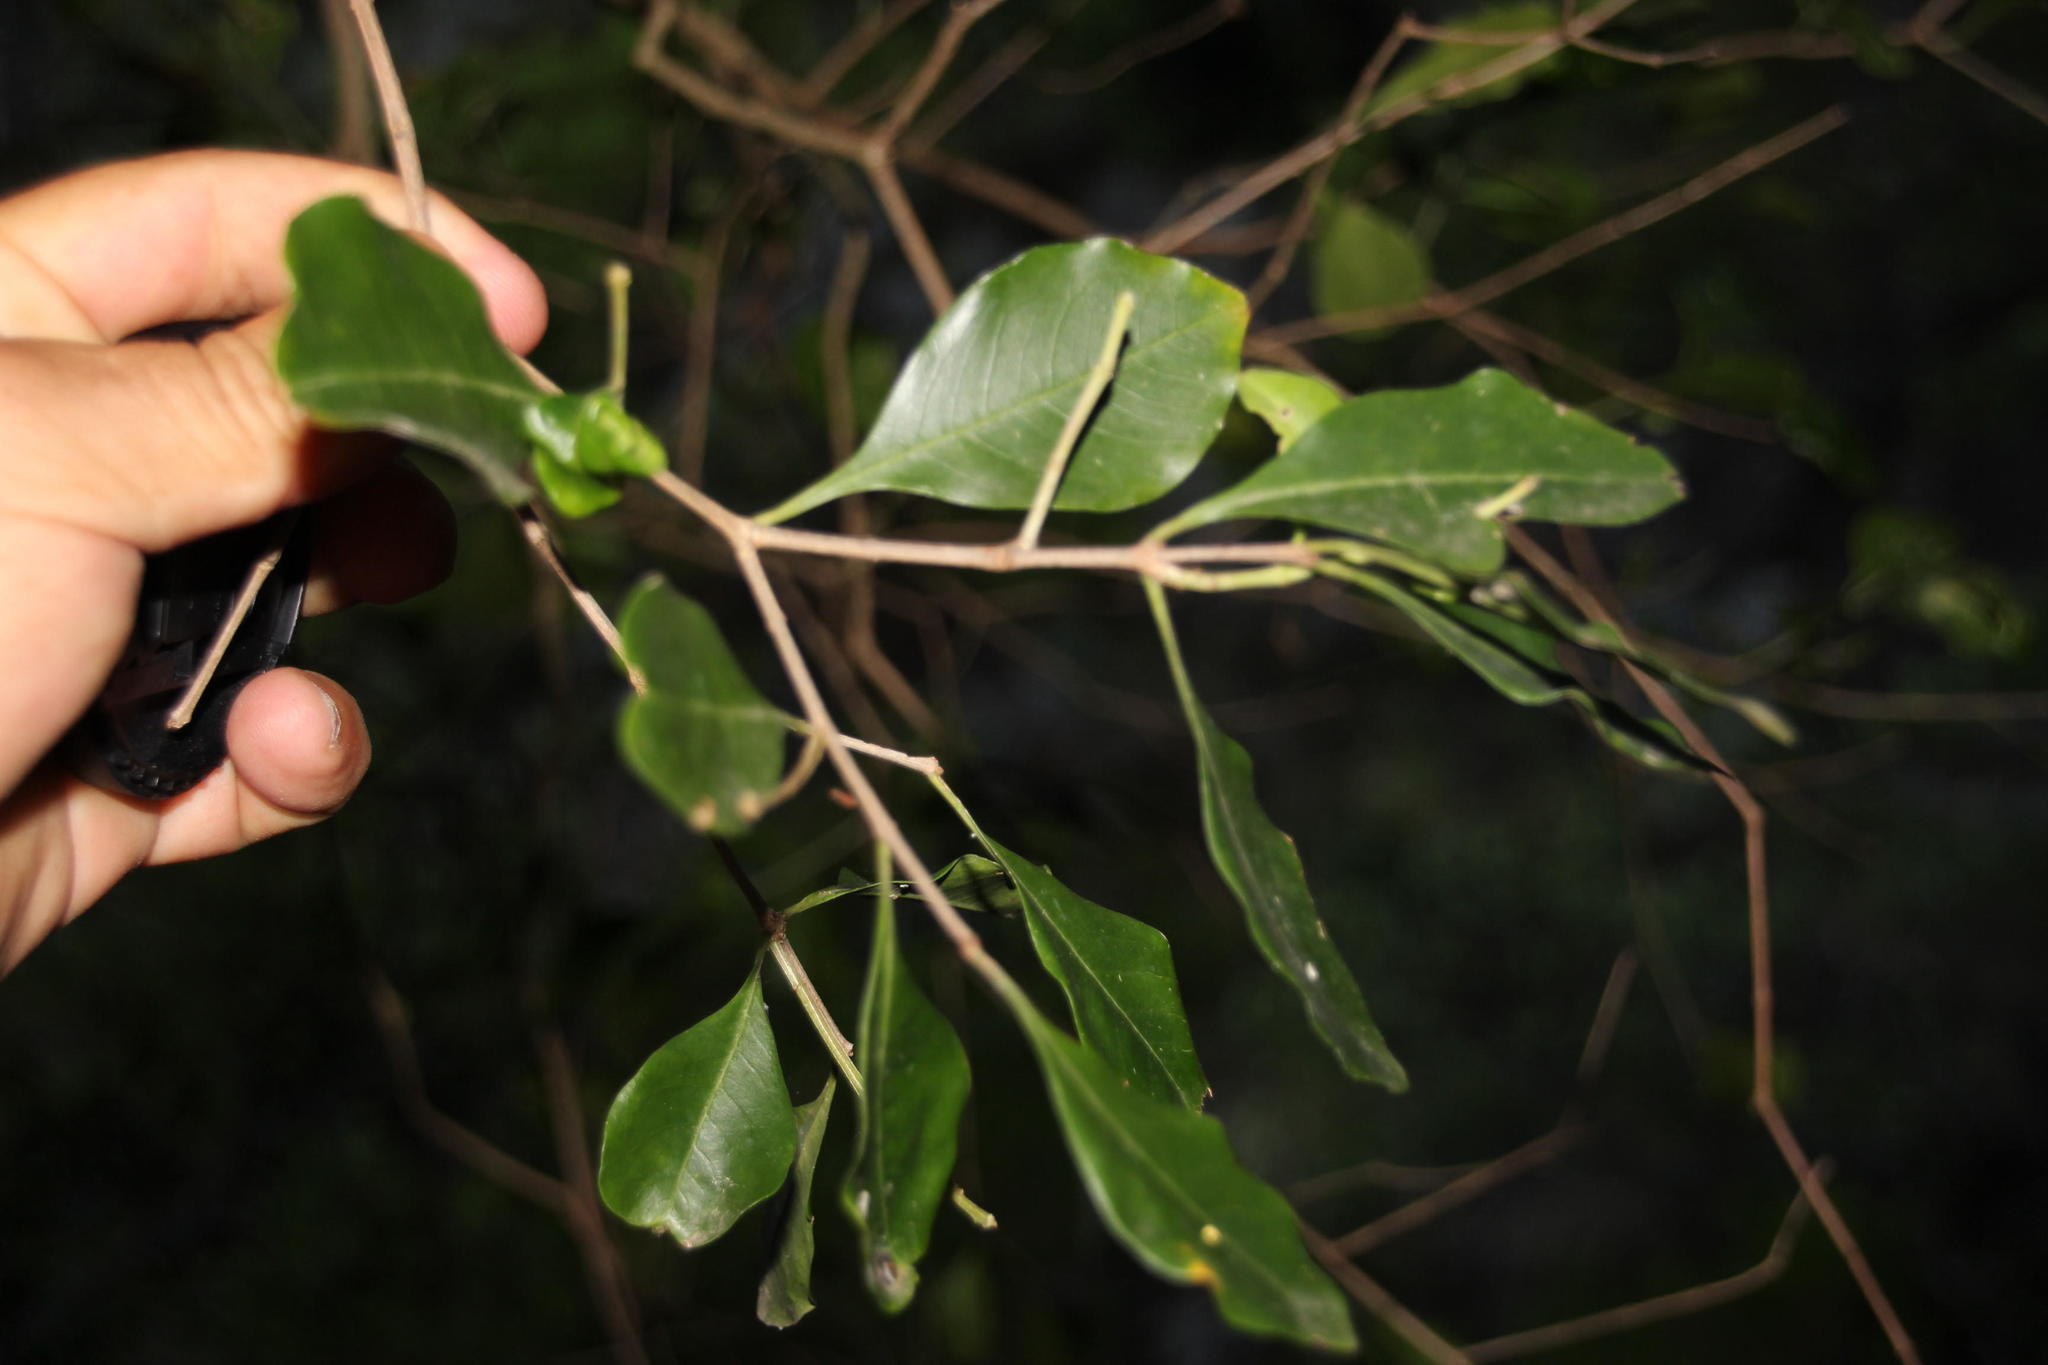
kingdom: Plantae
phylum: Tracheophyta
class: Magnoliopsida
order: Myrtales
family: Penaeaceae
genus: Olinia
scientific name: Olinia ventosa
